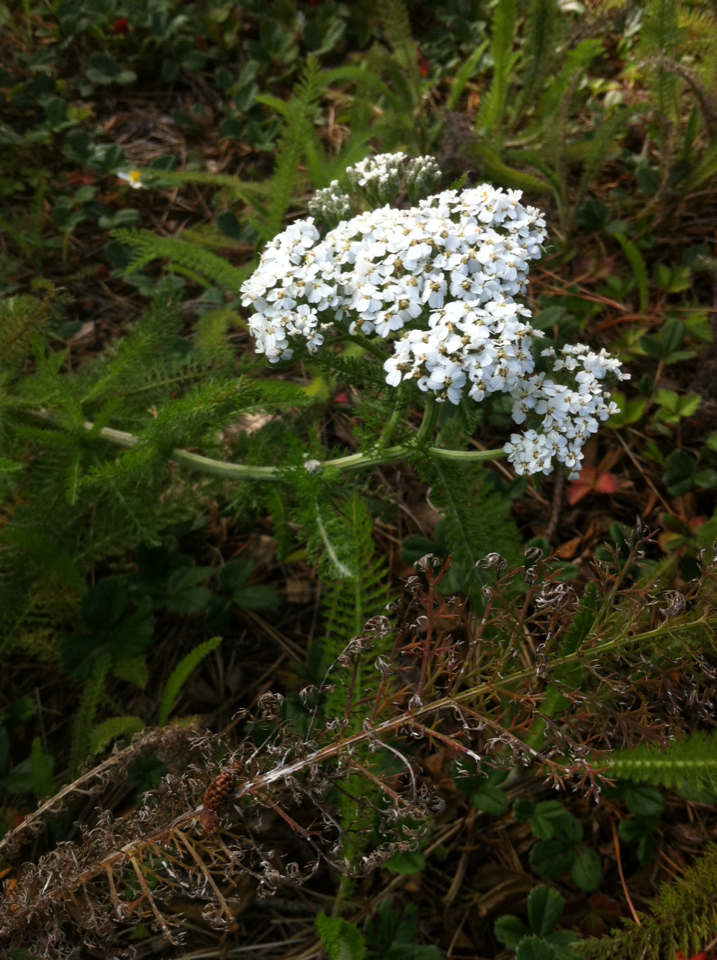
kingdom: Plantae
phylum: Tracheophyta
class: Magnoliopsida
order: Asterales
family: Asteraceae
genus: Achillea
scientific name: Achillea millefolium
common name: Yarrow
